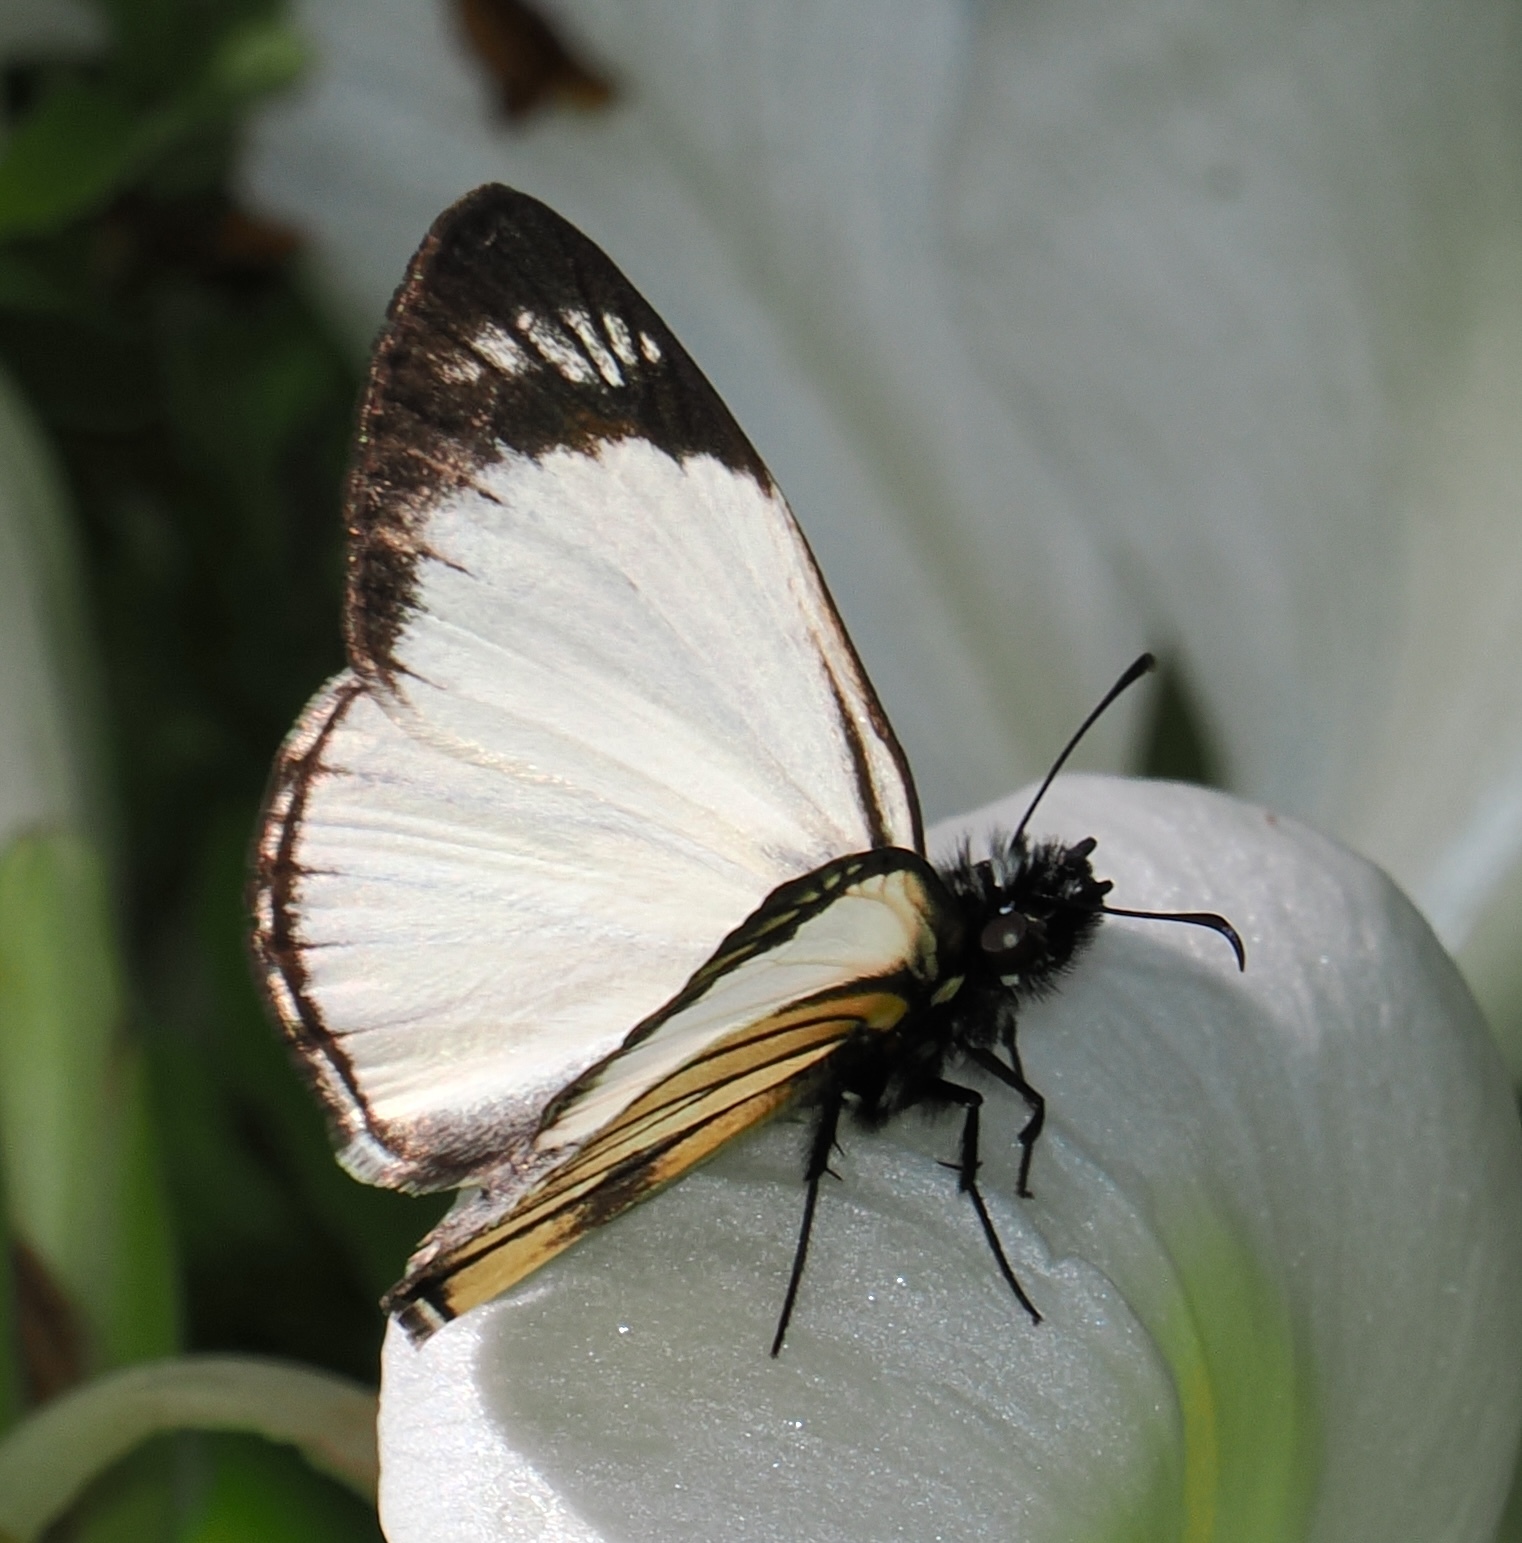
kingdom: Animalia
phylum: Arthropoda
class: Insecta
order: Lepidoptera
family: Hesperiidae
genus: Heliopetes
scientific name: Heliopetes alana
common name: Alana white-skipper
